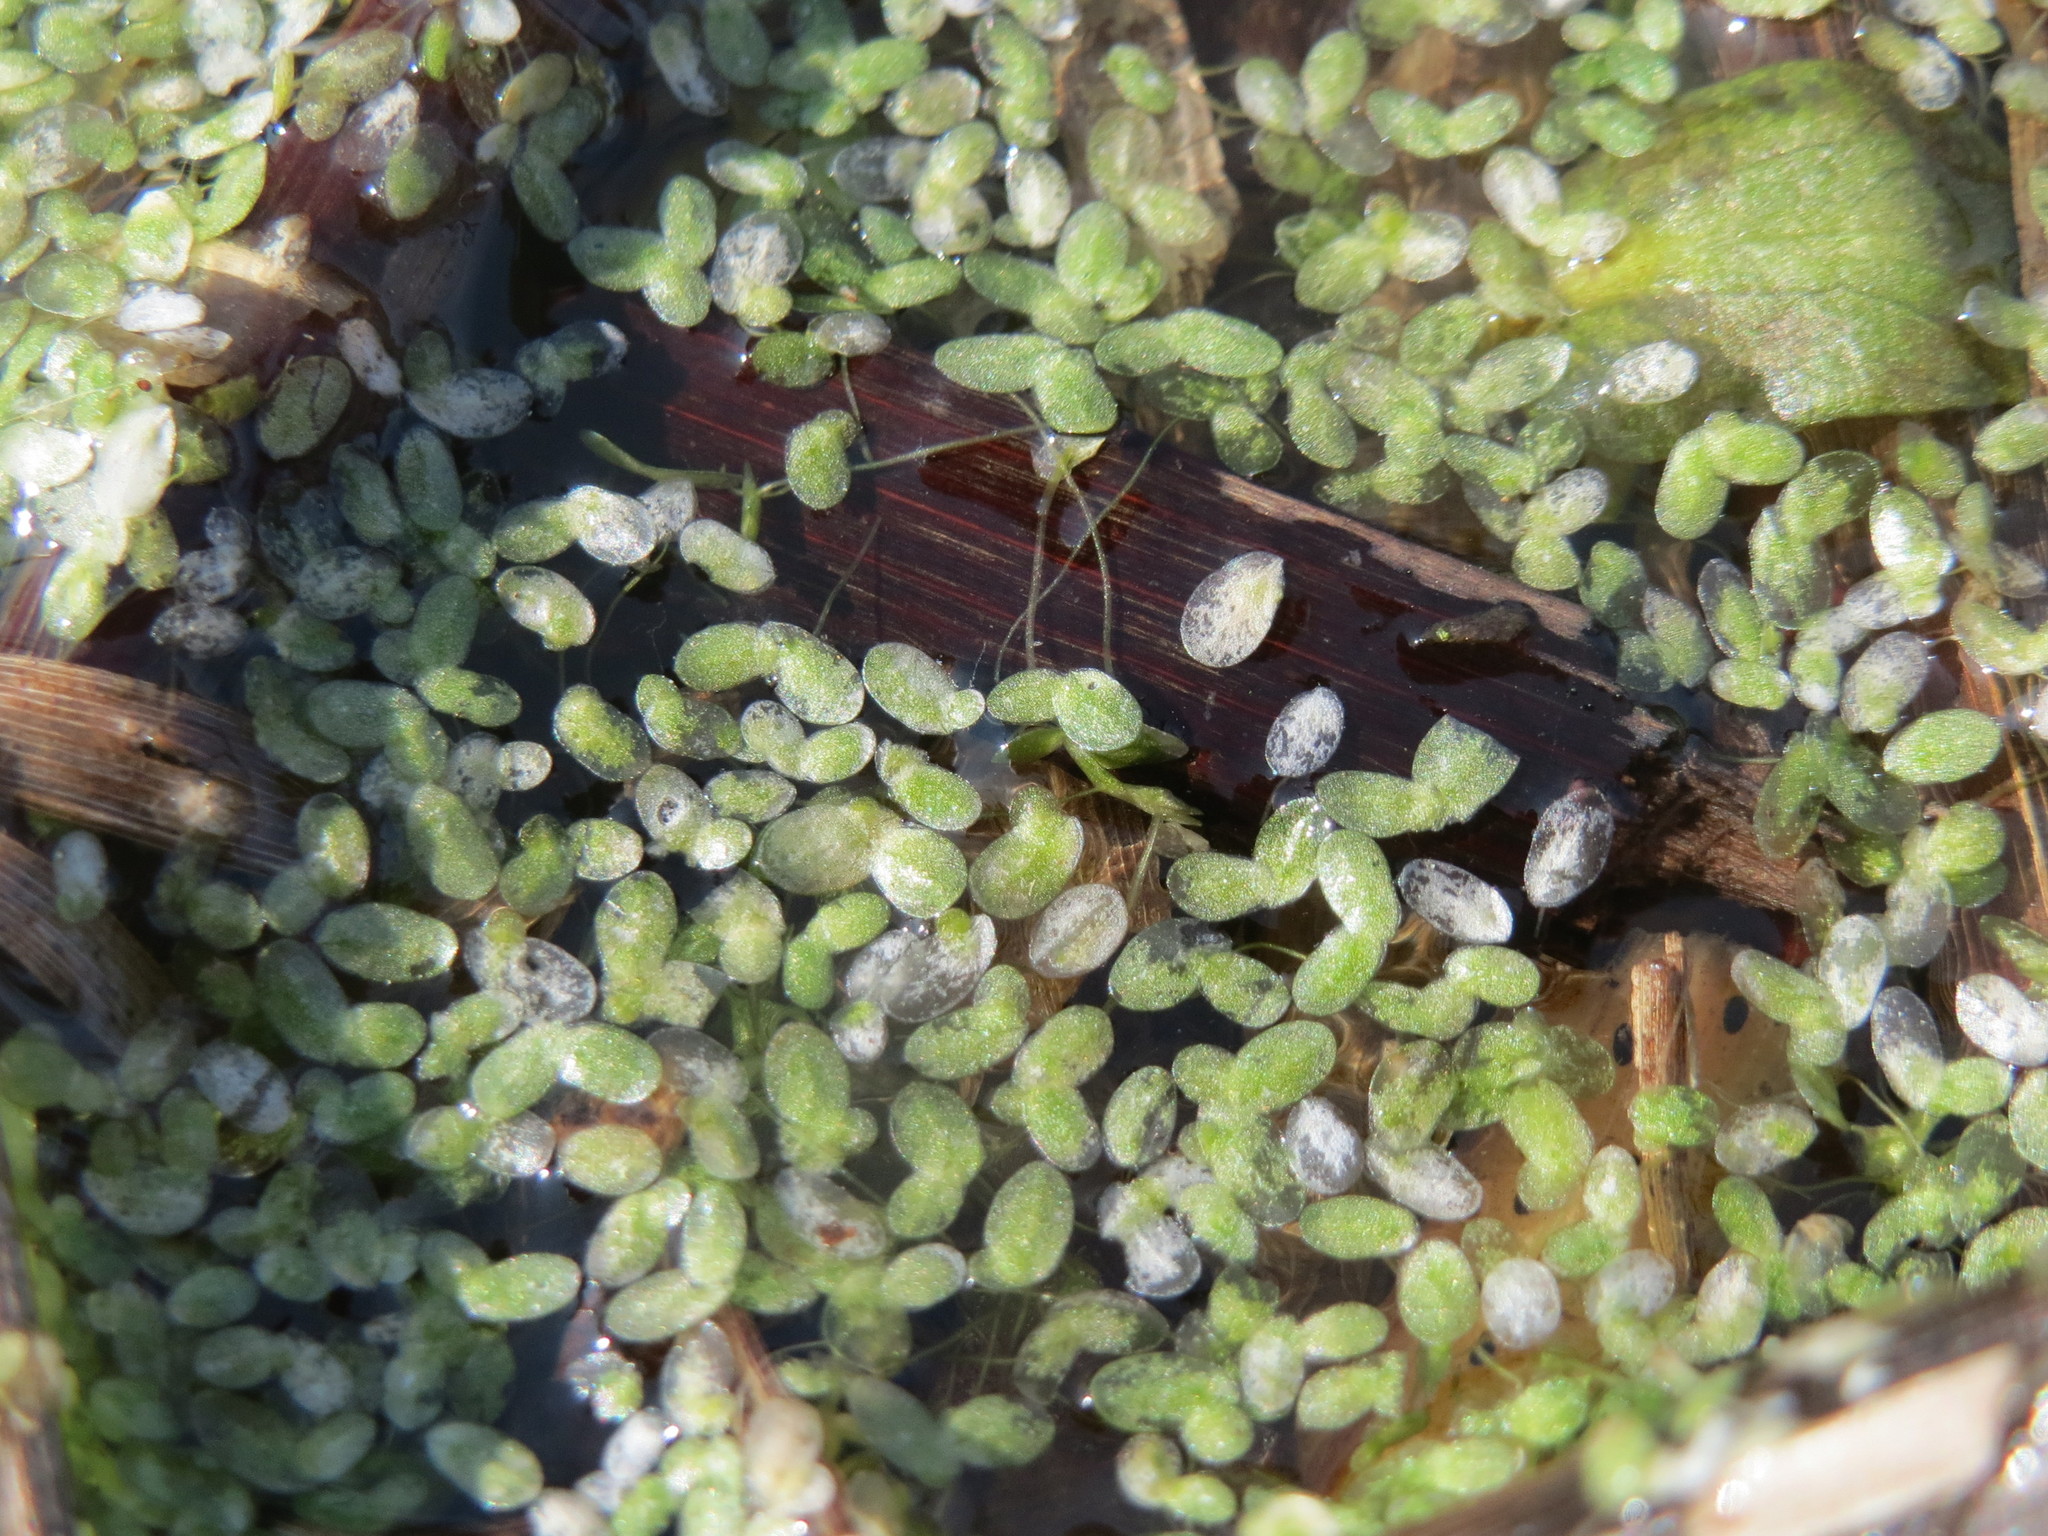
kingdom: Plantae
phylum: Tracheophyta
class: Liliopsida
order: Alismatales
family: Araceae
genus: Lemna
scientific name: Lemna minor
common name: Common duckweed
